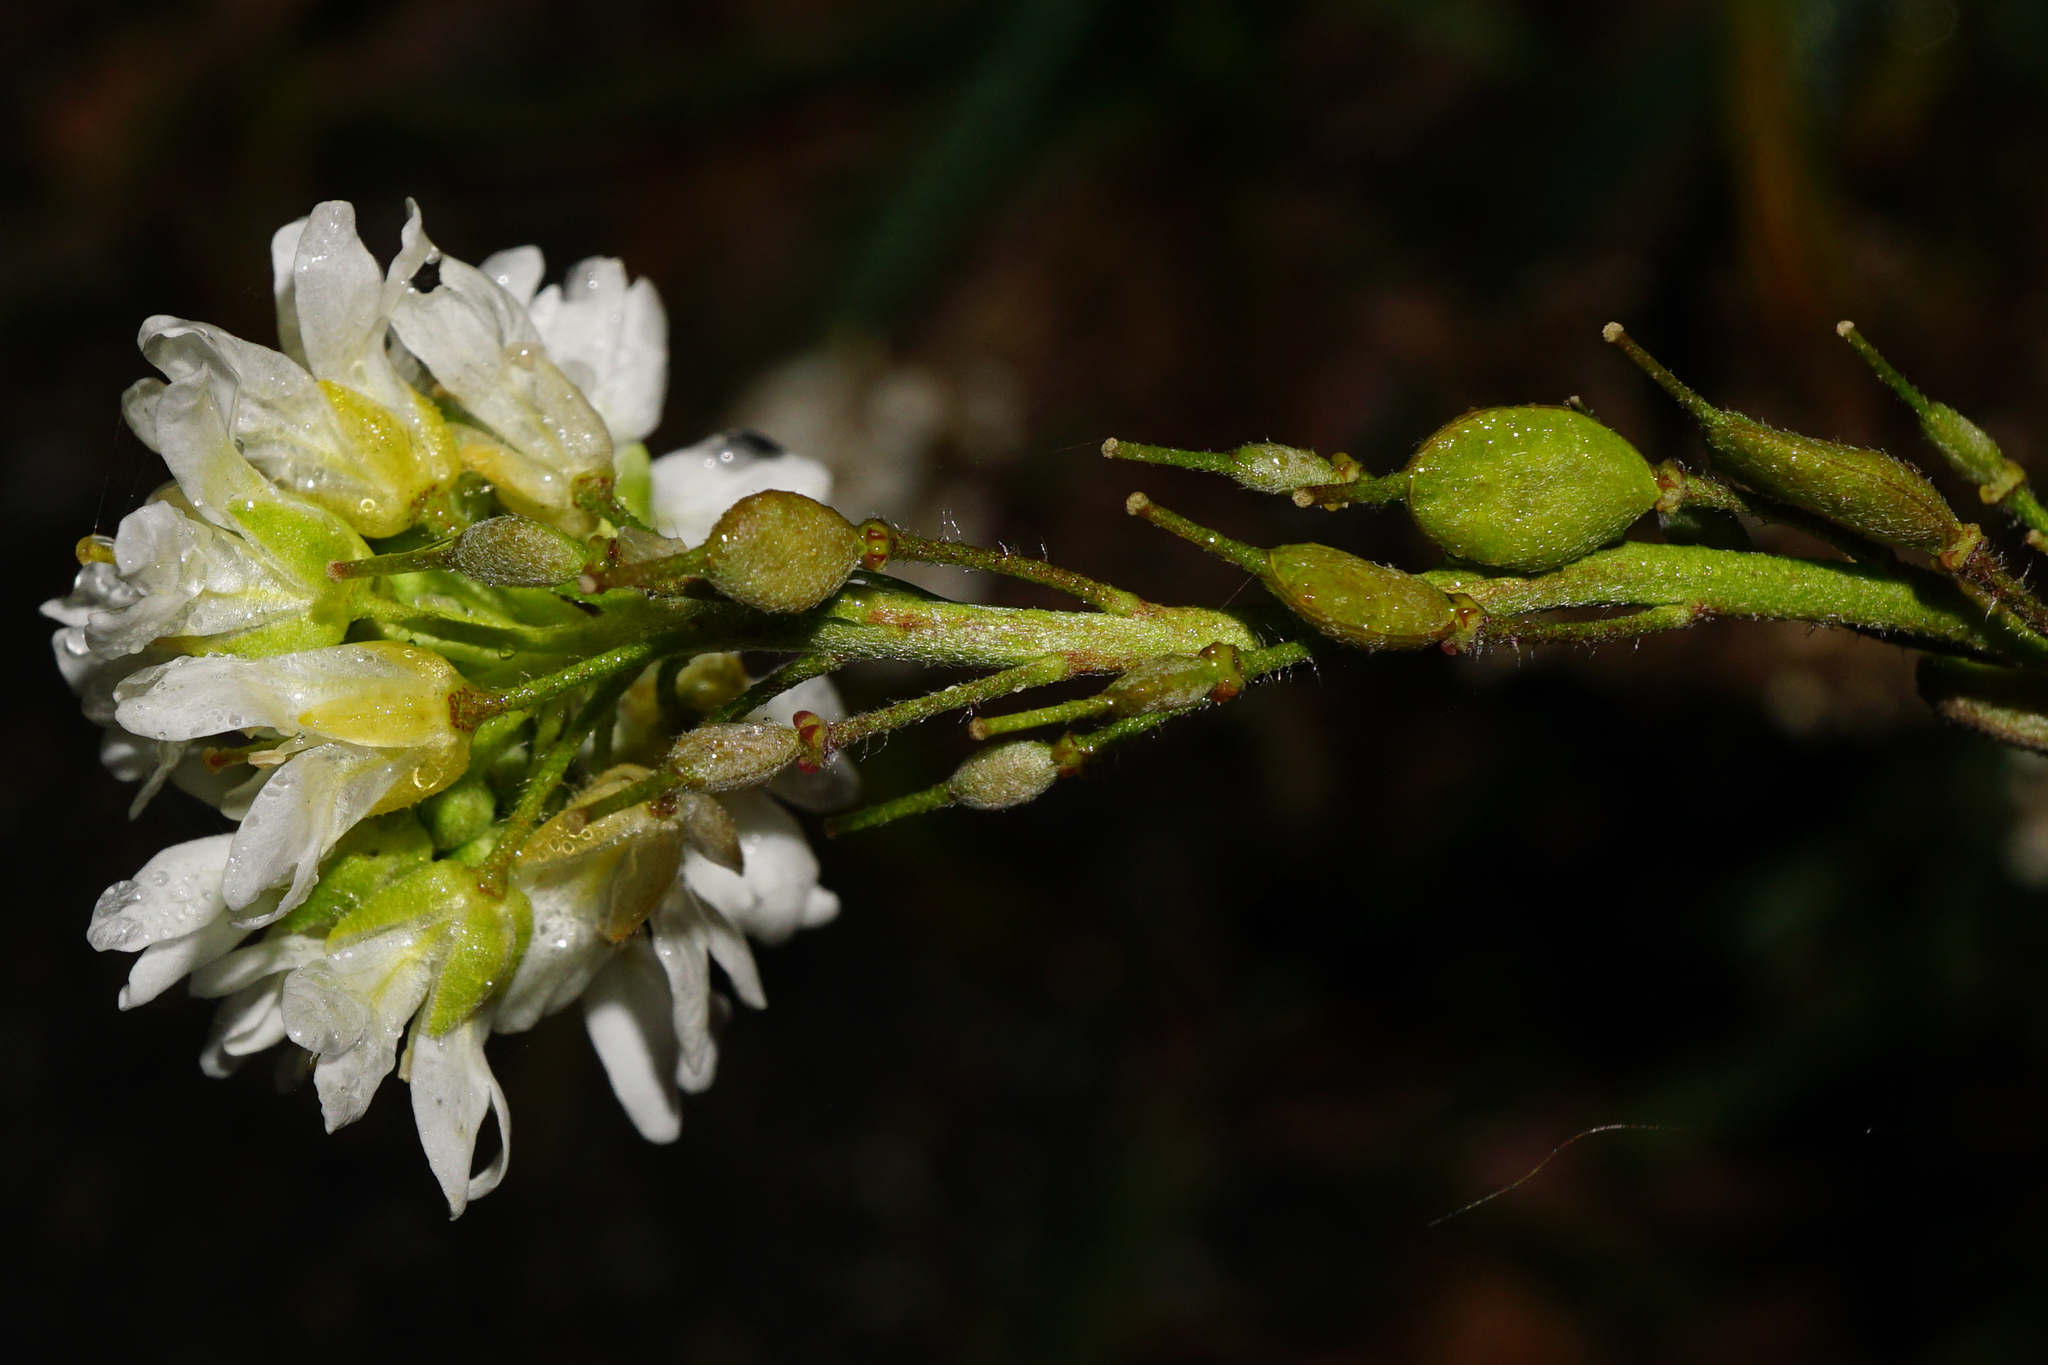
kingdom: Plantae
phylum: Tracheophyta
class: Magnoliopsida
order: Brassicales
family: Brassicaceae
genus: Berteroa
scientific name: Berteroa incana
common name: Hoary alison
